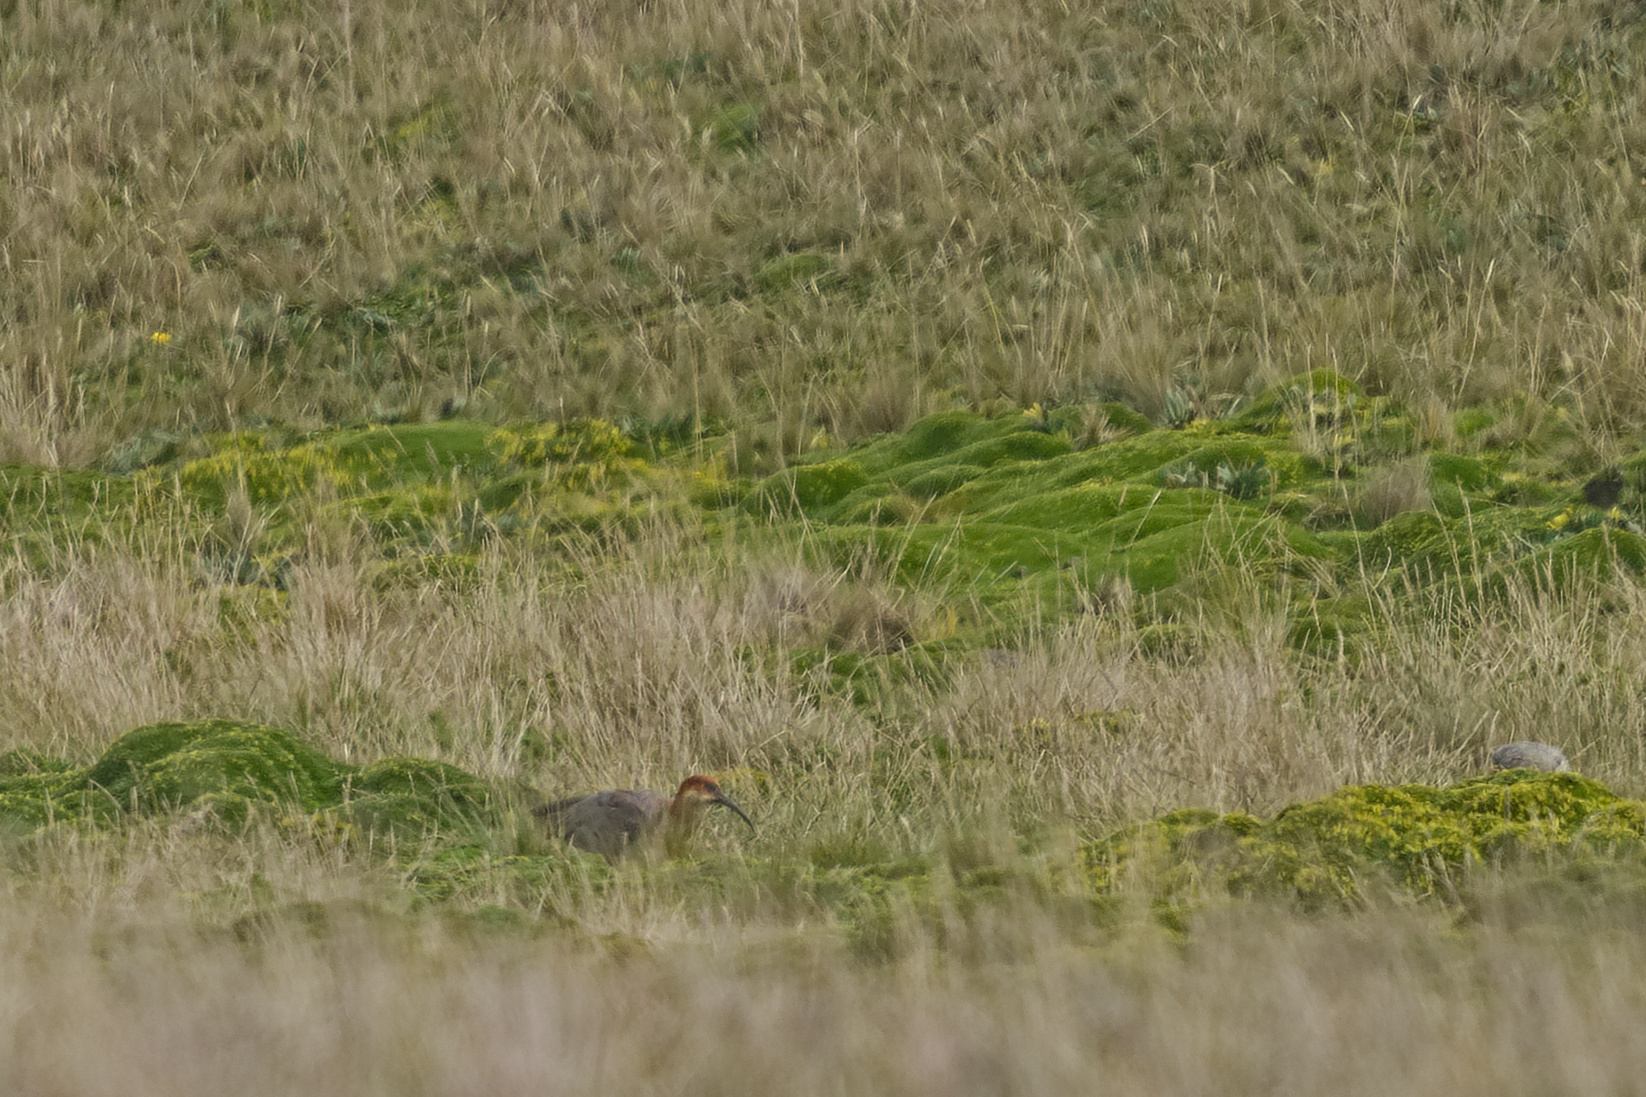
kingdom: Animalia
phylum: Chordata
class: Aves
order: Pelecaniformes
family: Threskiornithidae
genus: Theristicus
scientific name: Theristicus melanopis
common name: Black-faced ibis
